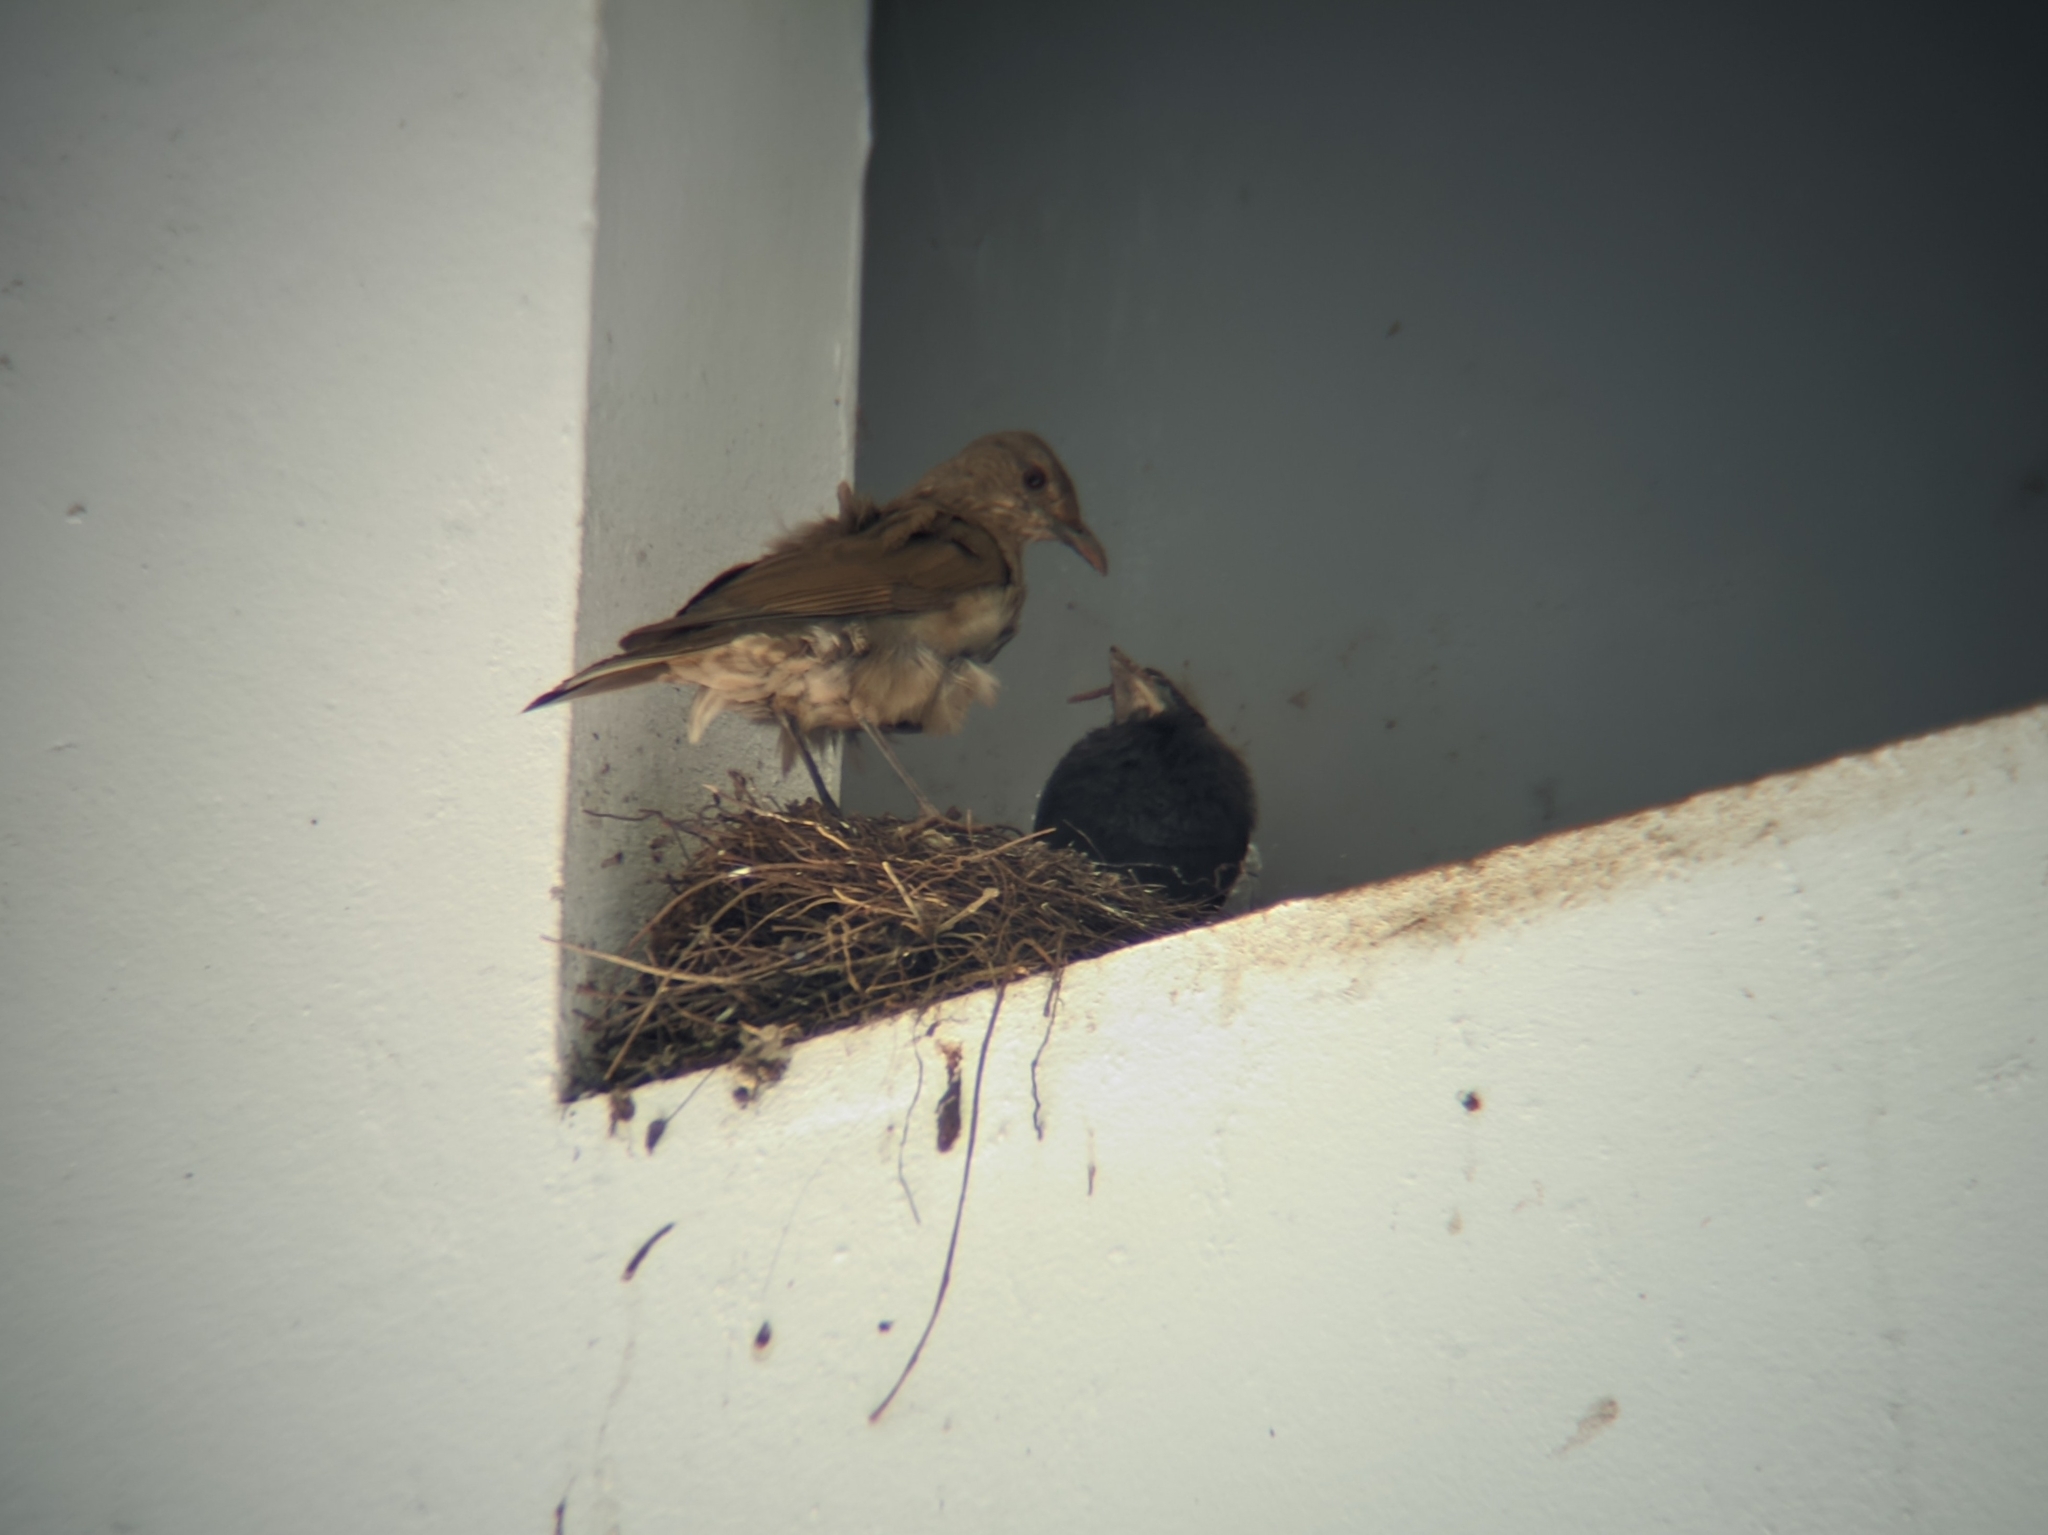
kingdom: Animalia
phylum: Chordata
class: Aves
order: Passeriformes
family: Turdidae
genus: Turdus
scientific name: Turdus leucomelas
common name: Pale-breasted thrush
